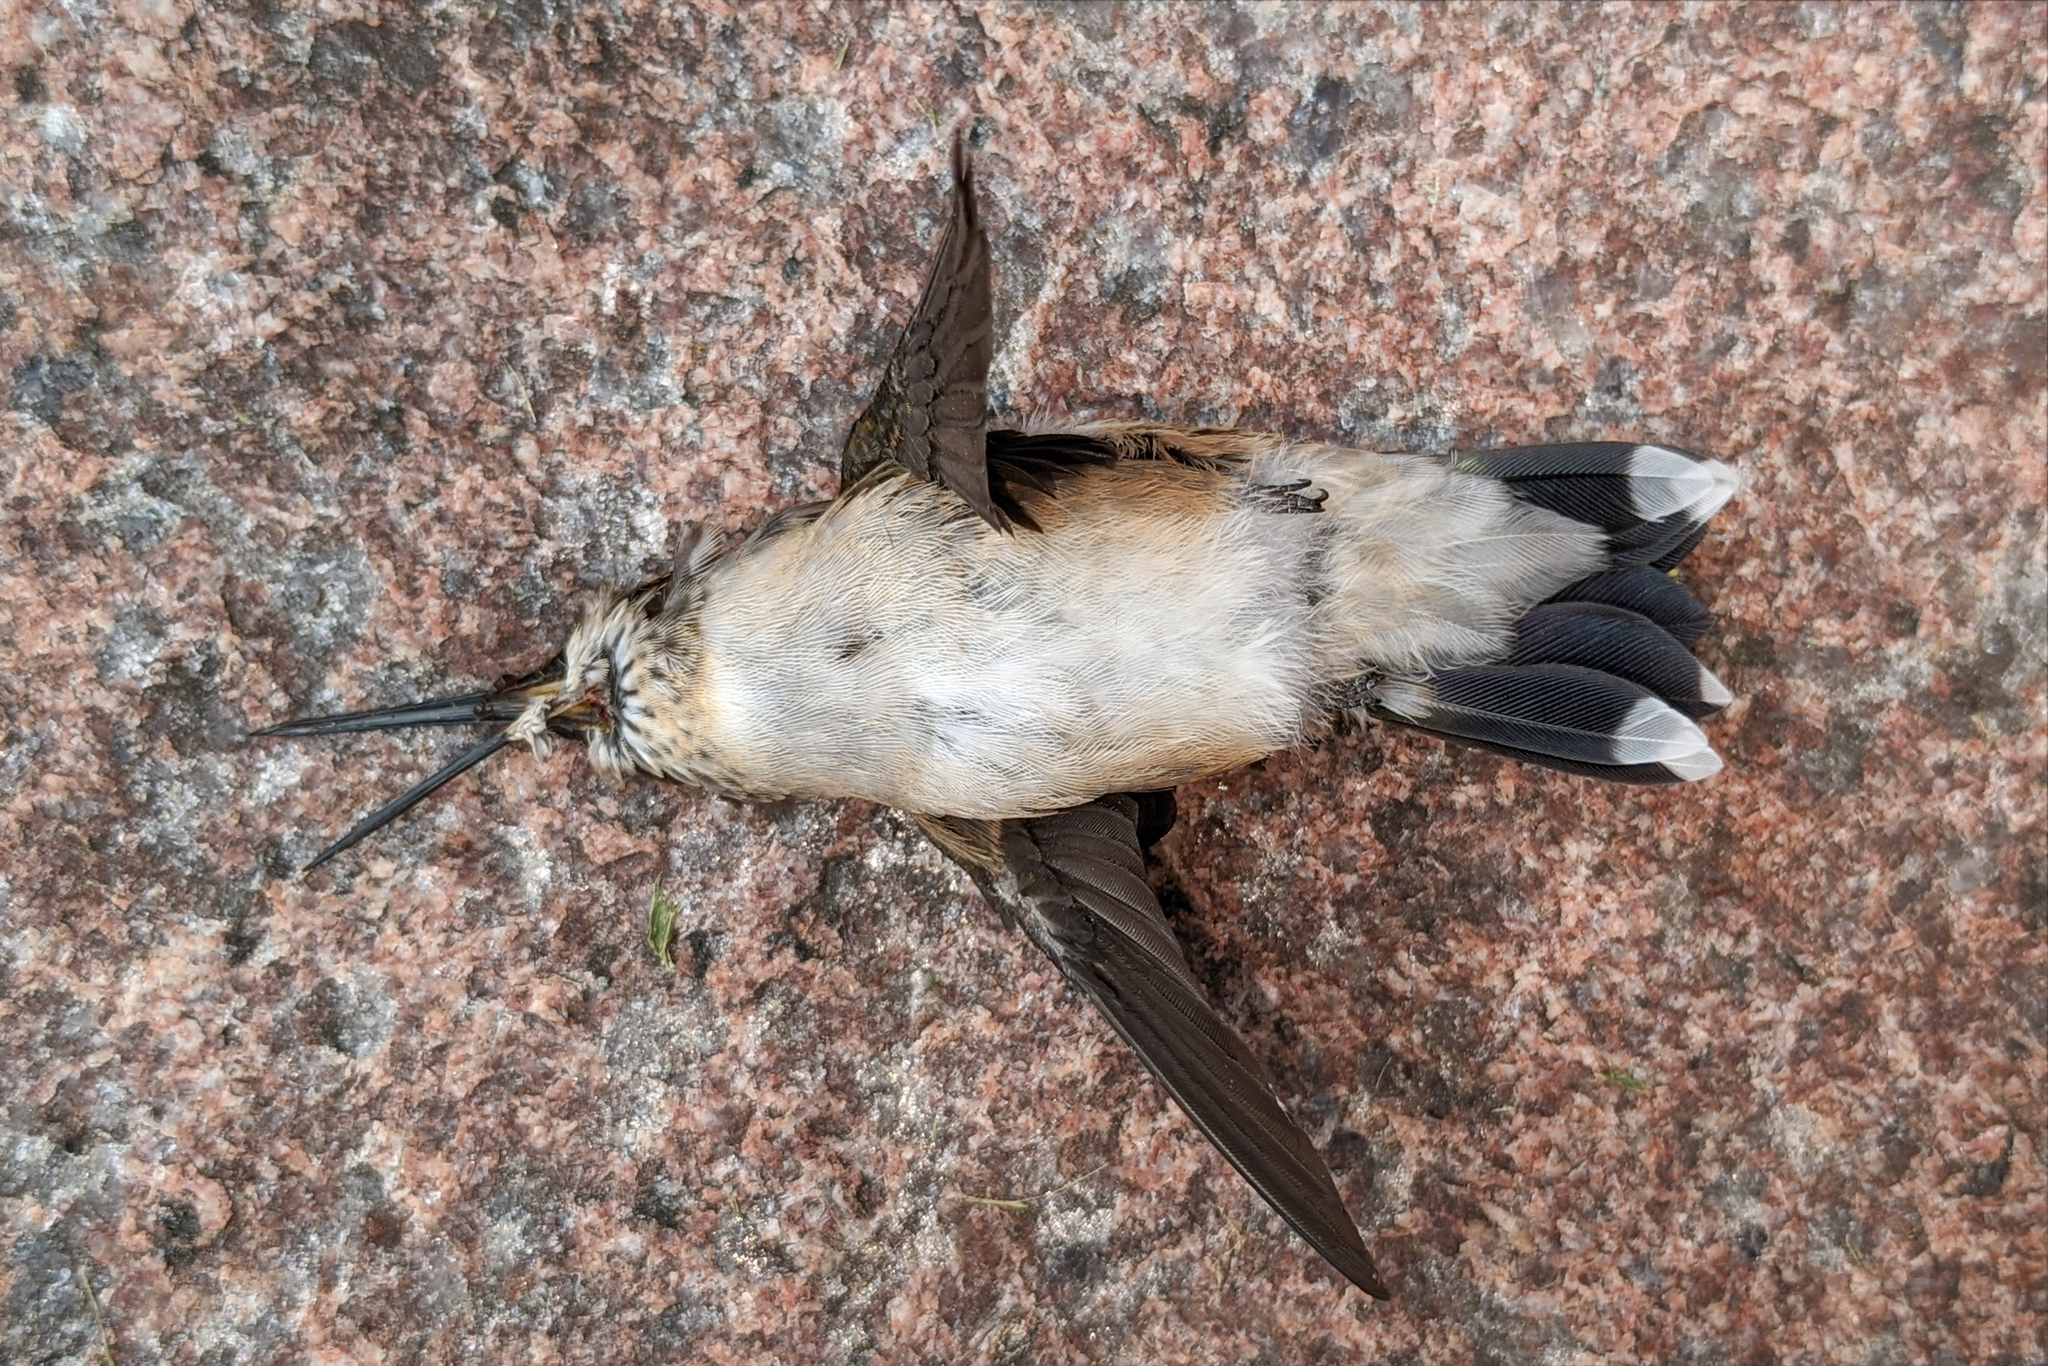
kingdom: Animalia
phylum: Chordata
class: Aves
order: Apodiformes
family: Trochilidae
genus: Archilochus
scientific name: Archilochus colubris
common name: Ruby-throated hummingbird
